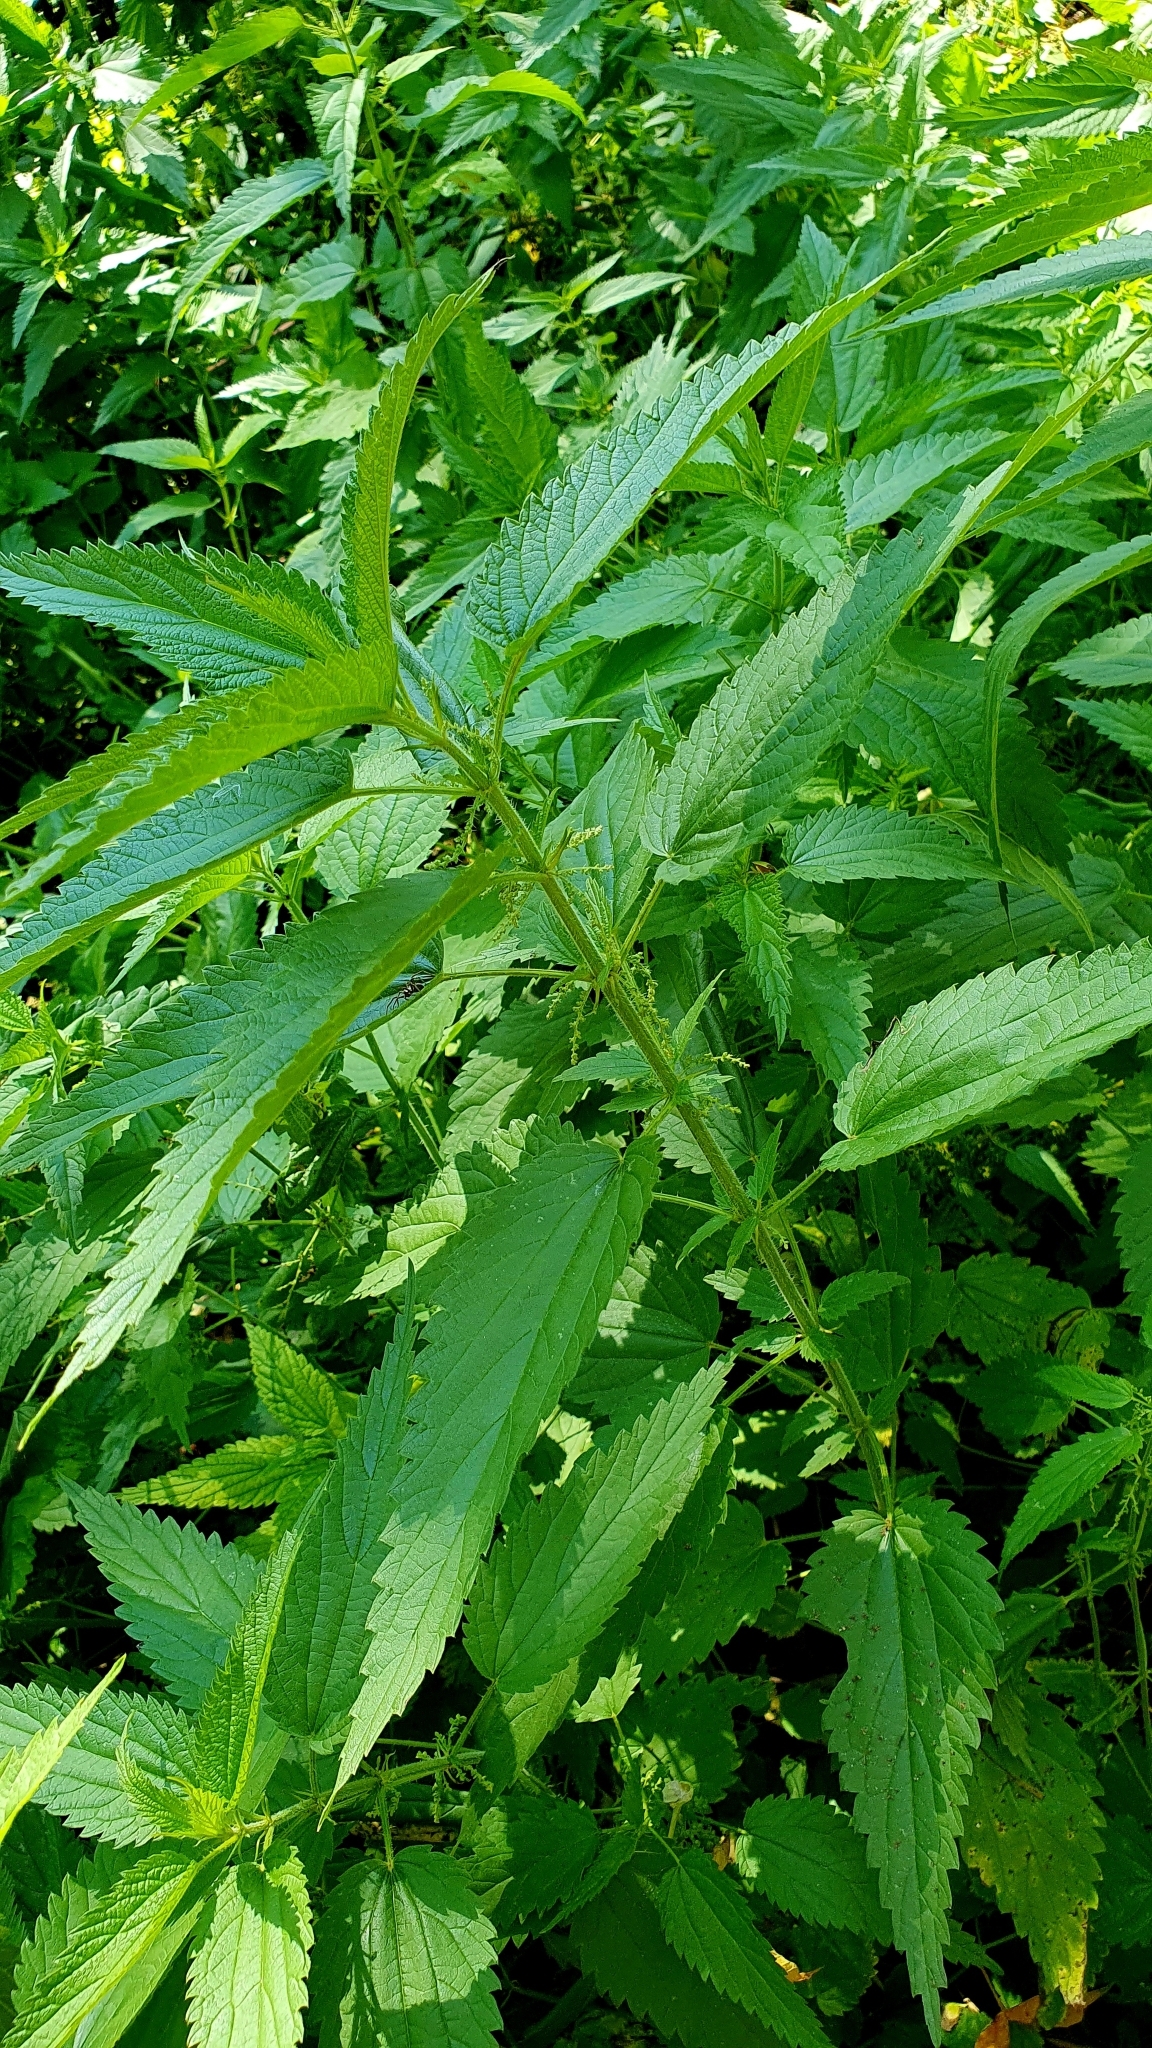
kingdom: Plantae
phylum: Tracheophyta
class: Magnoliopsida
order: Rosales
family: Urticaceae
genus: Urtica
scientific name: Urtica dioica
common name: Common nettle
